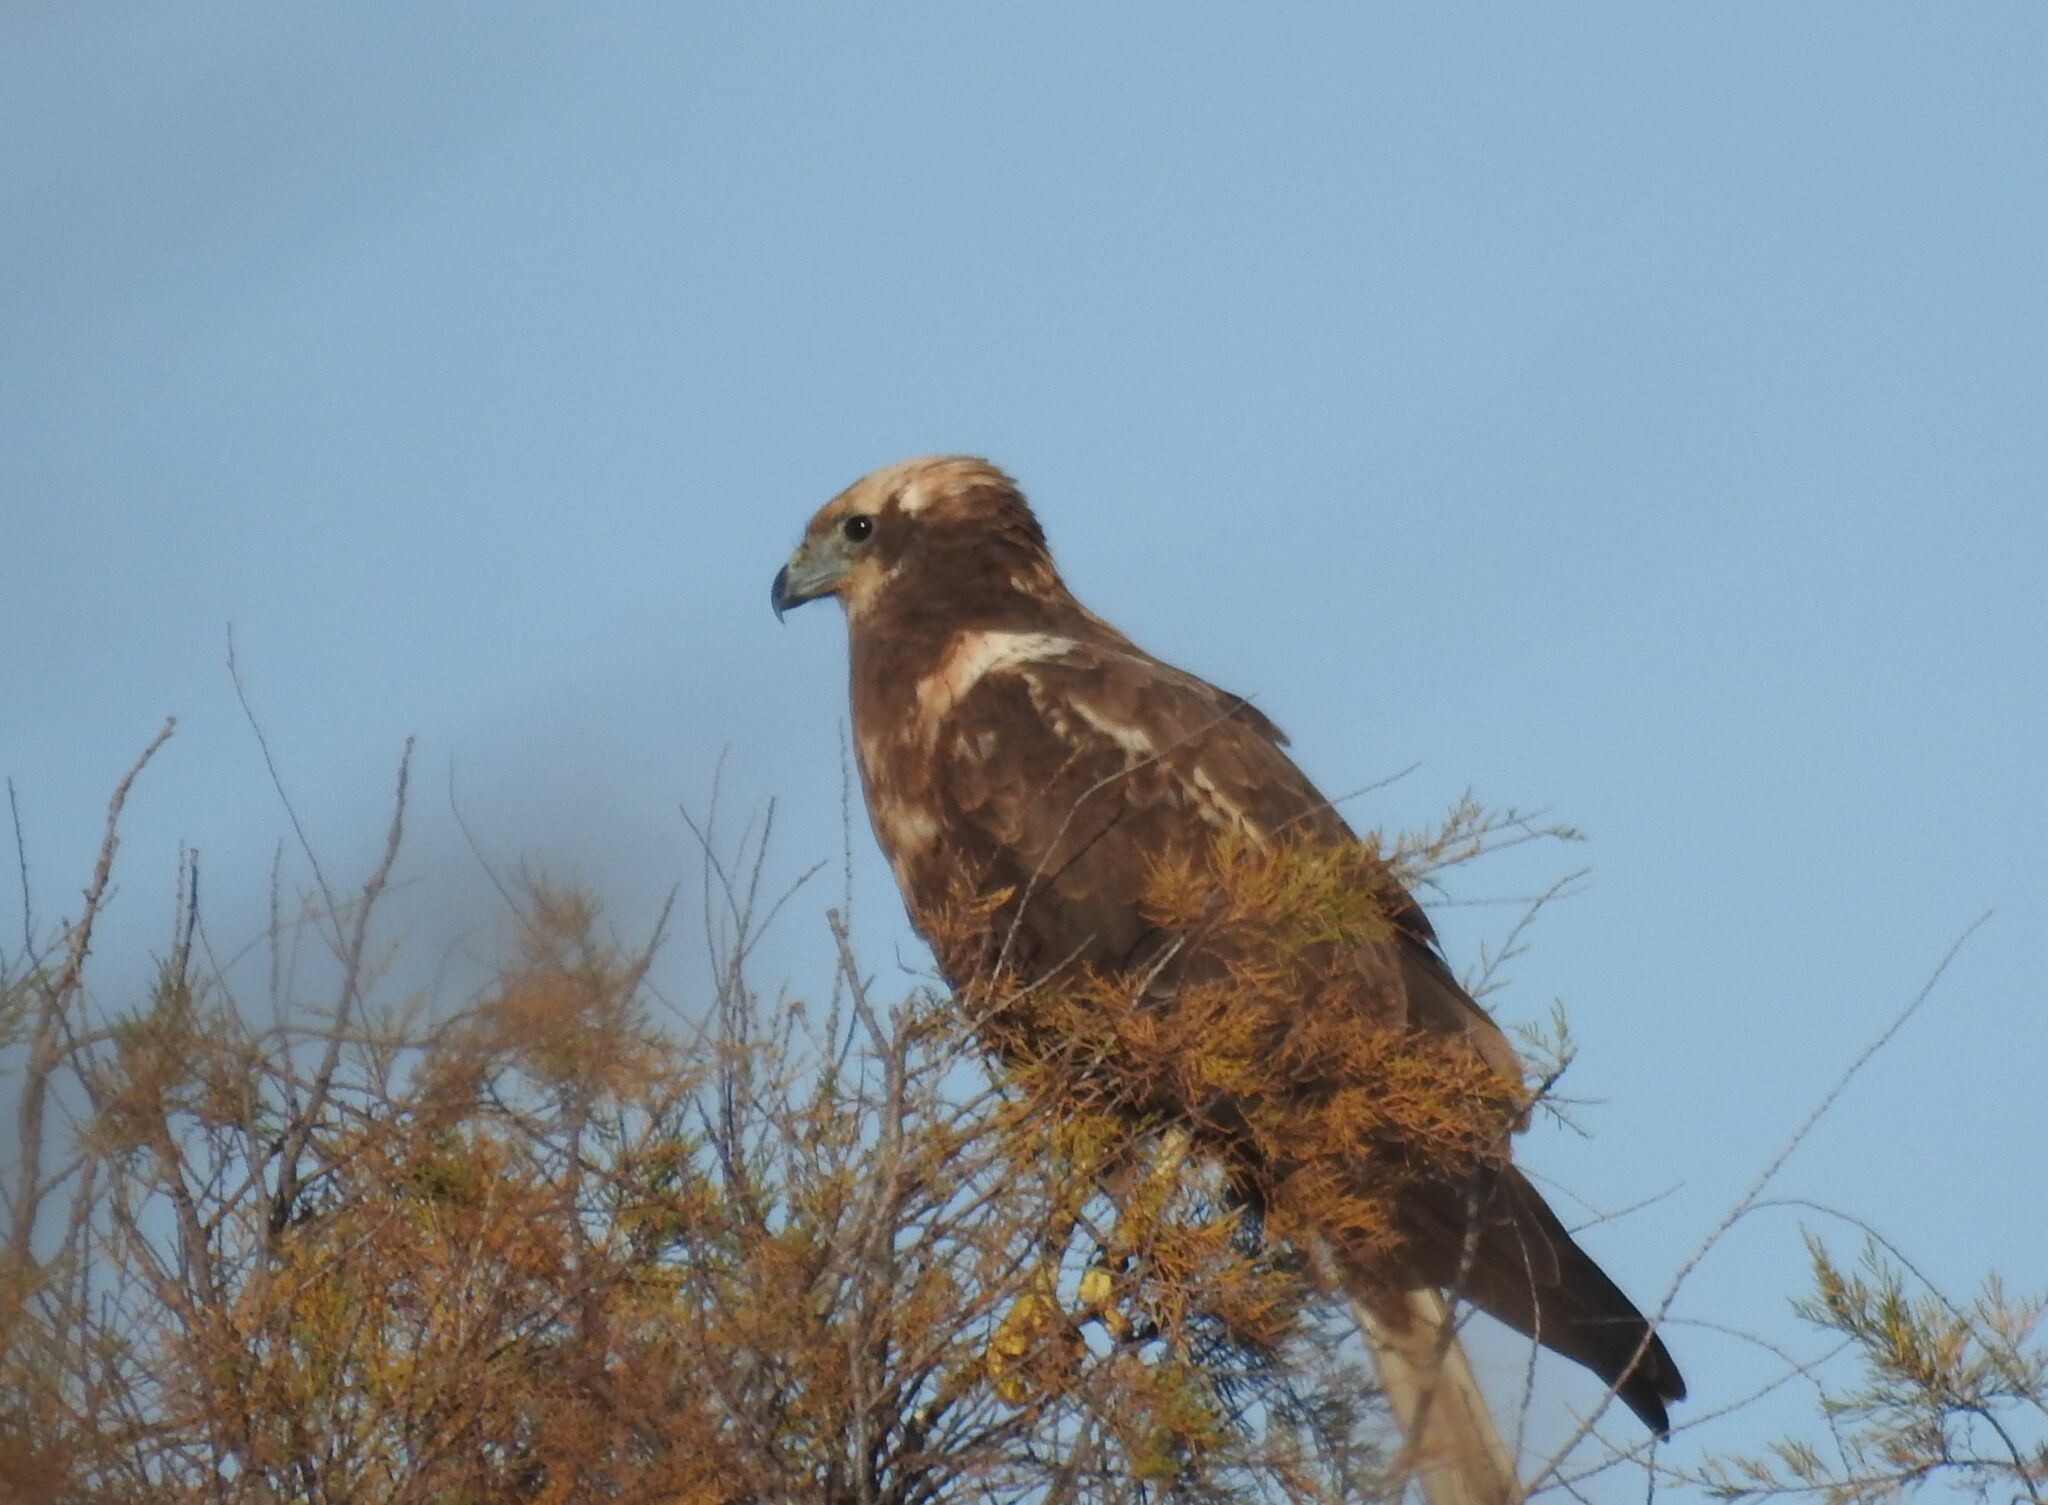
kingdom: Animalia
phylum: Chordata
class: Aves
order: Accipitriformes
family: Accipitridae
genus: Circus
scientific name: Circus aeruginosus
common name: Western marsh harrier
